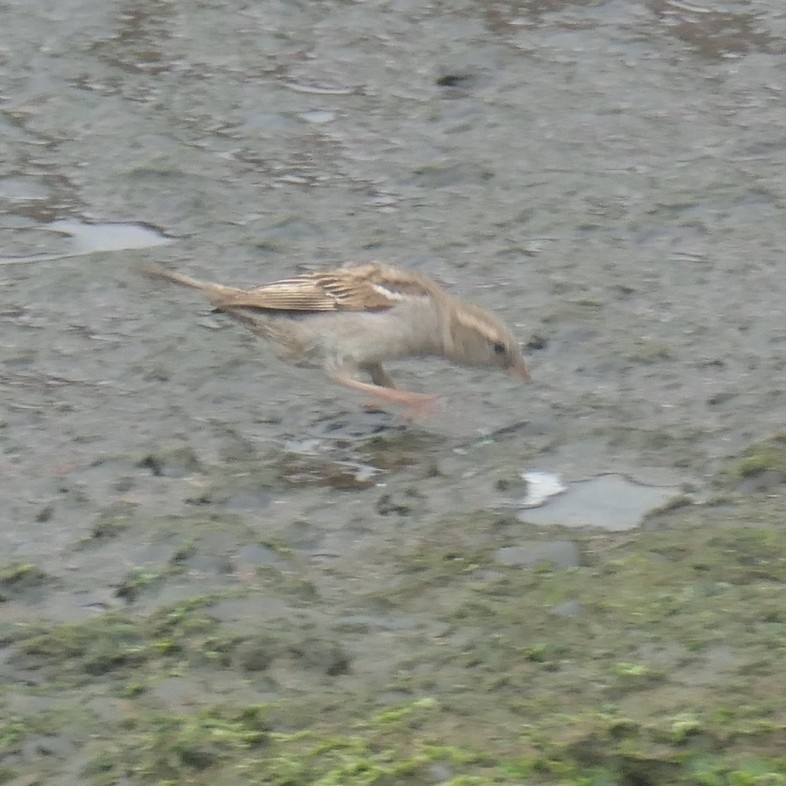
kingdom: Animalia
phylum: Chordata
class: Aves
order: Passeriformes
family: Passeridae
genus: Passer
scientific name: Passer domesticus
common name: House sparrow
